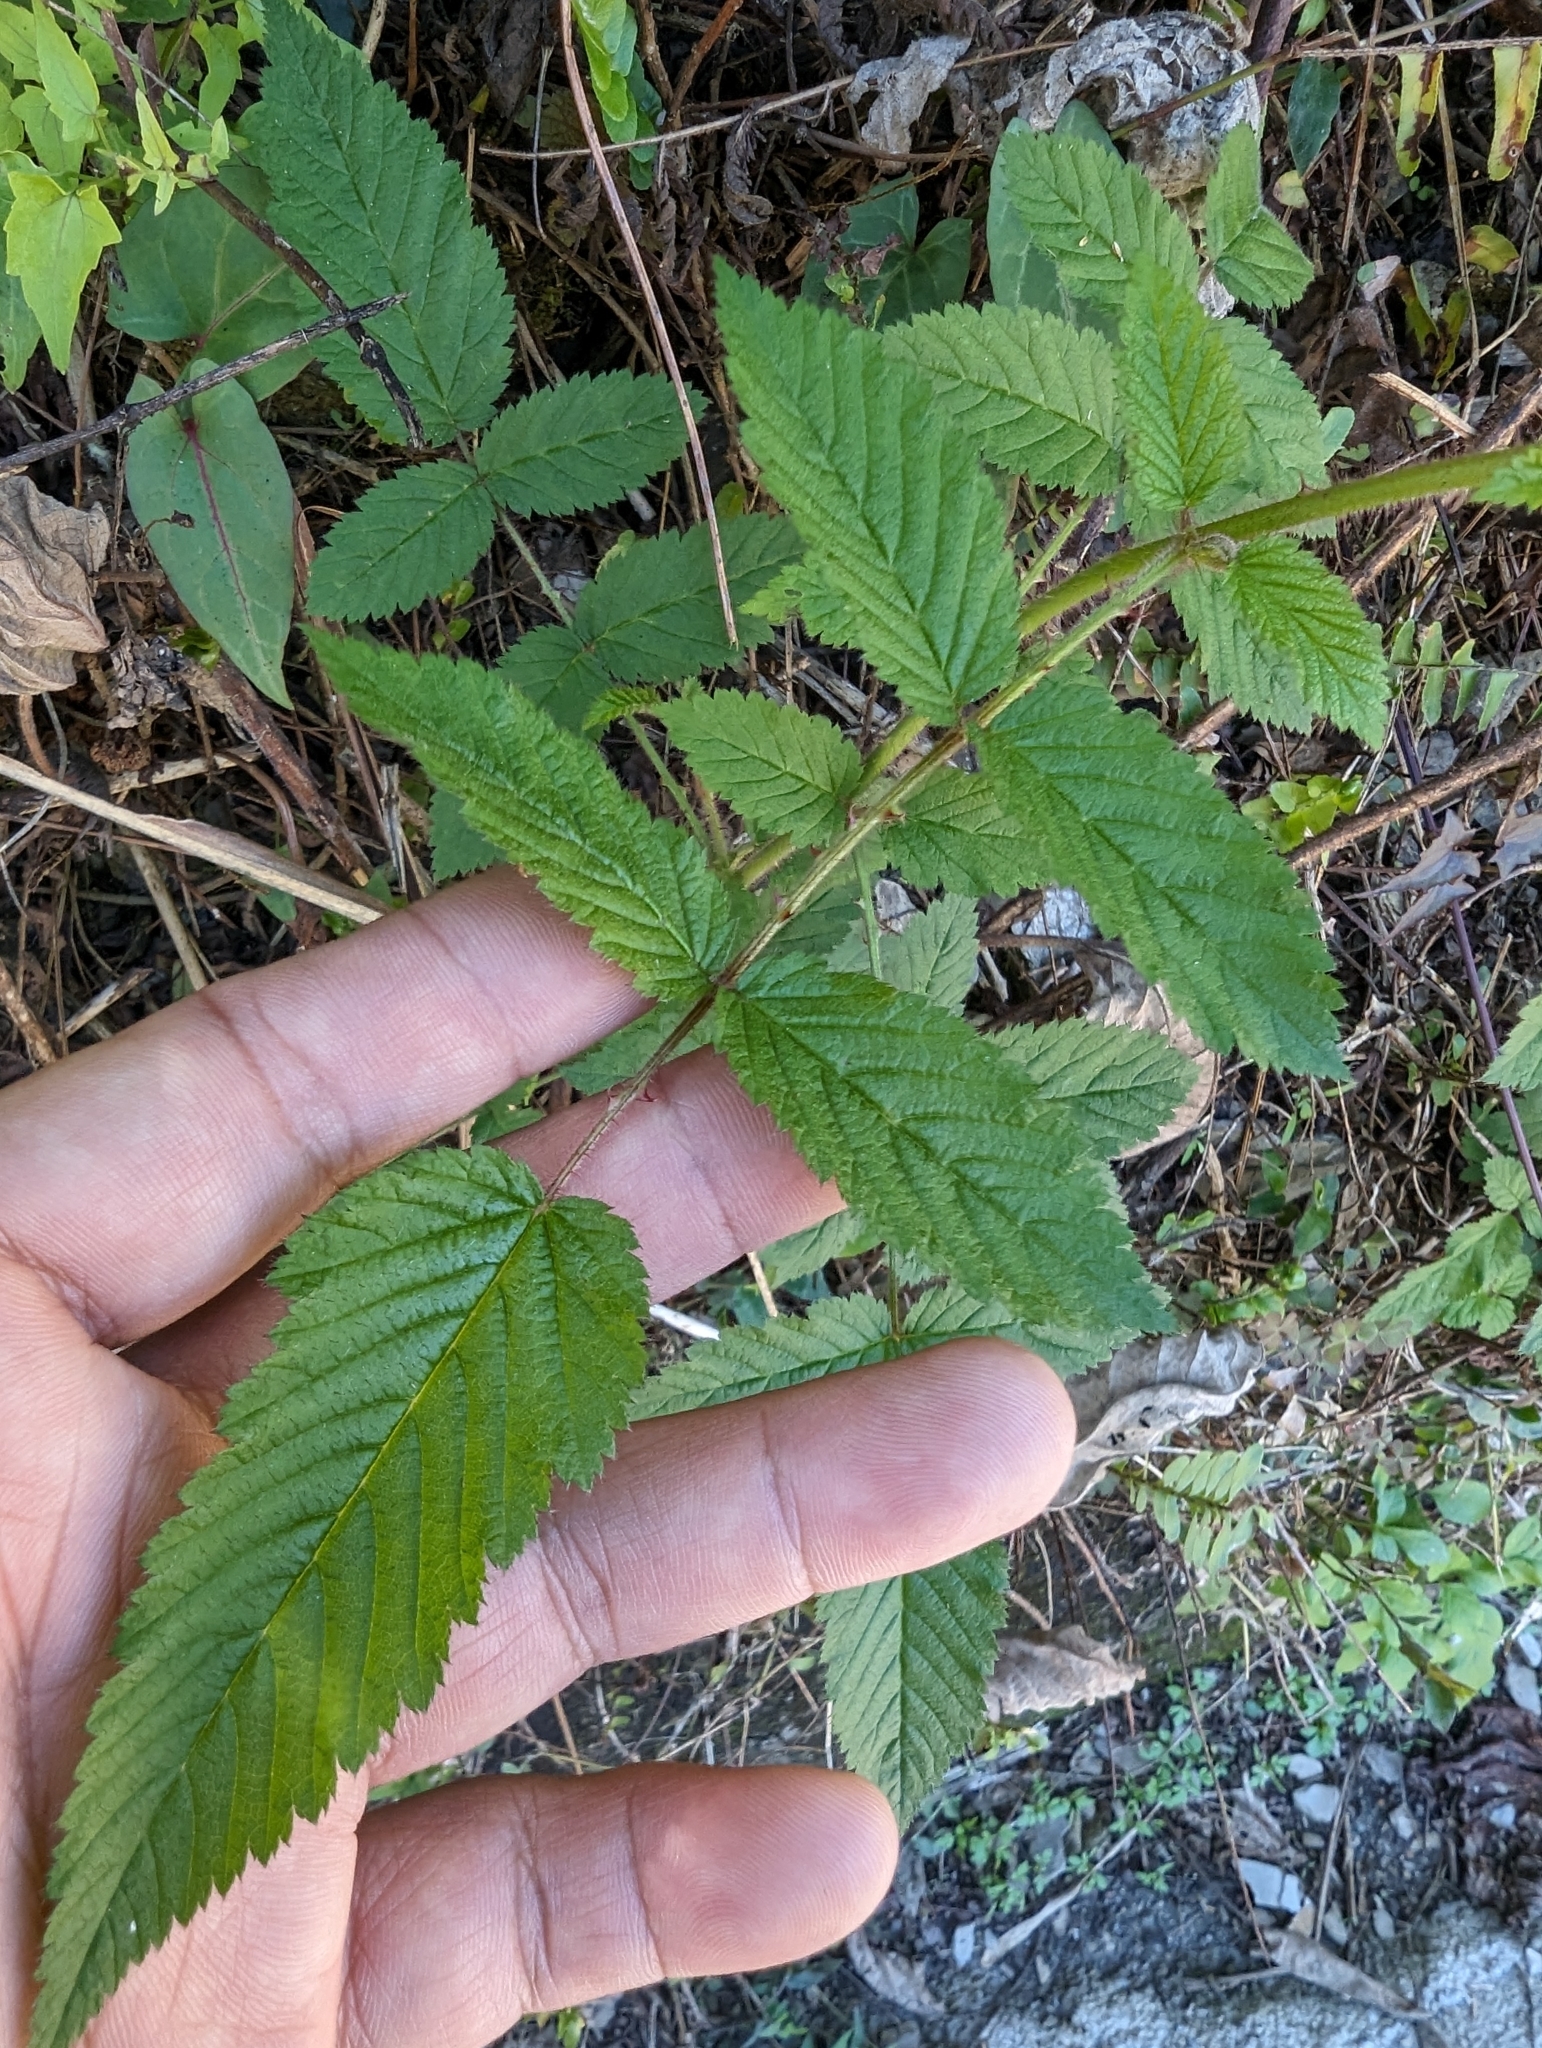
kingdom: Plantae
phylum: Tracheophyta
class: Magnoliopsida
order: Rosales
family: Rosaceae
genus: Rubus
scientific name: Rubus croceacanthus
